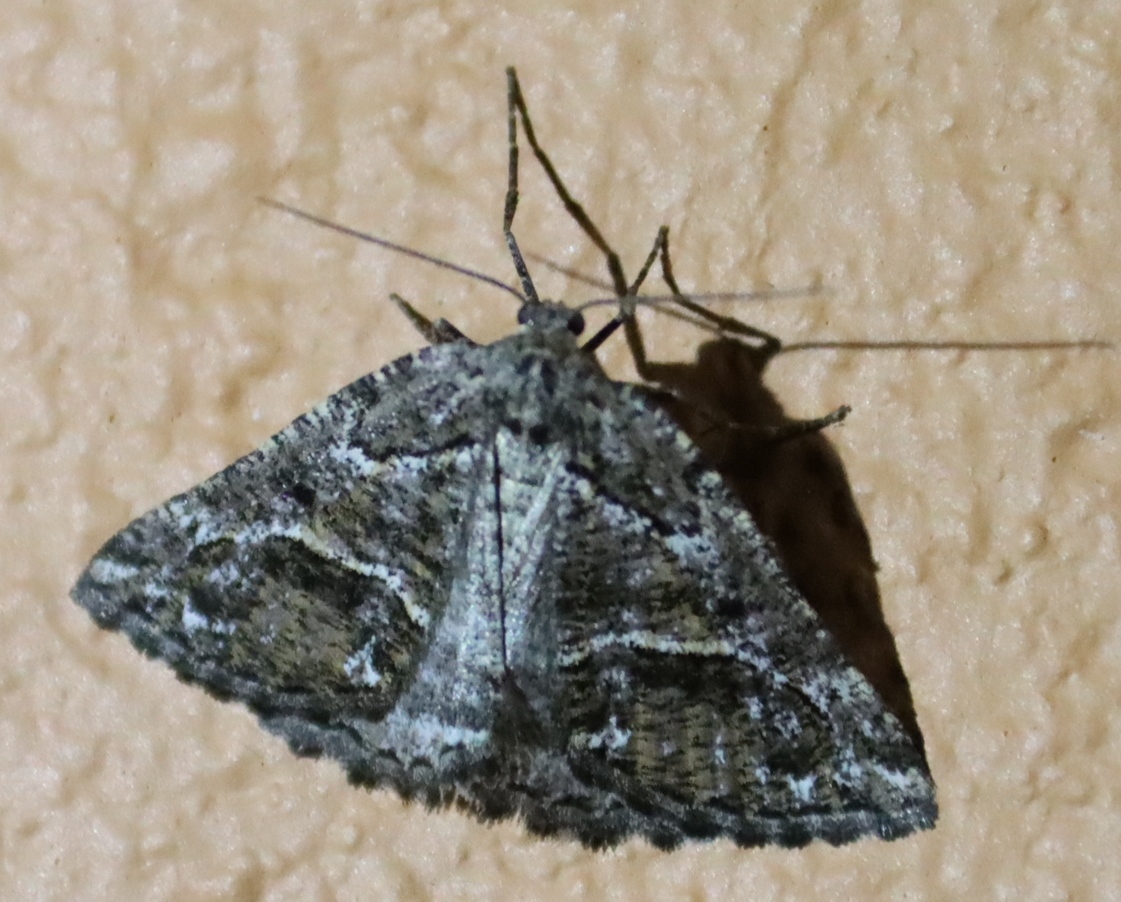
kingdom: Animalia
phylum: Arthropoda
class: Insecta
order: Lepidoptera
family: Geometridae
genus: Hypotephrina
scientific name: Hypotephrina confertaria
